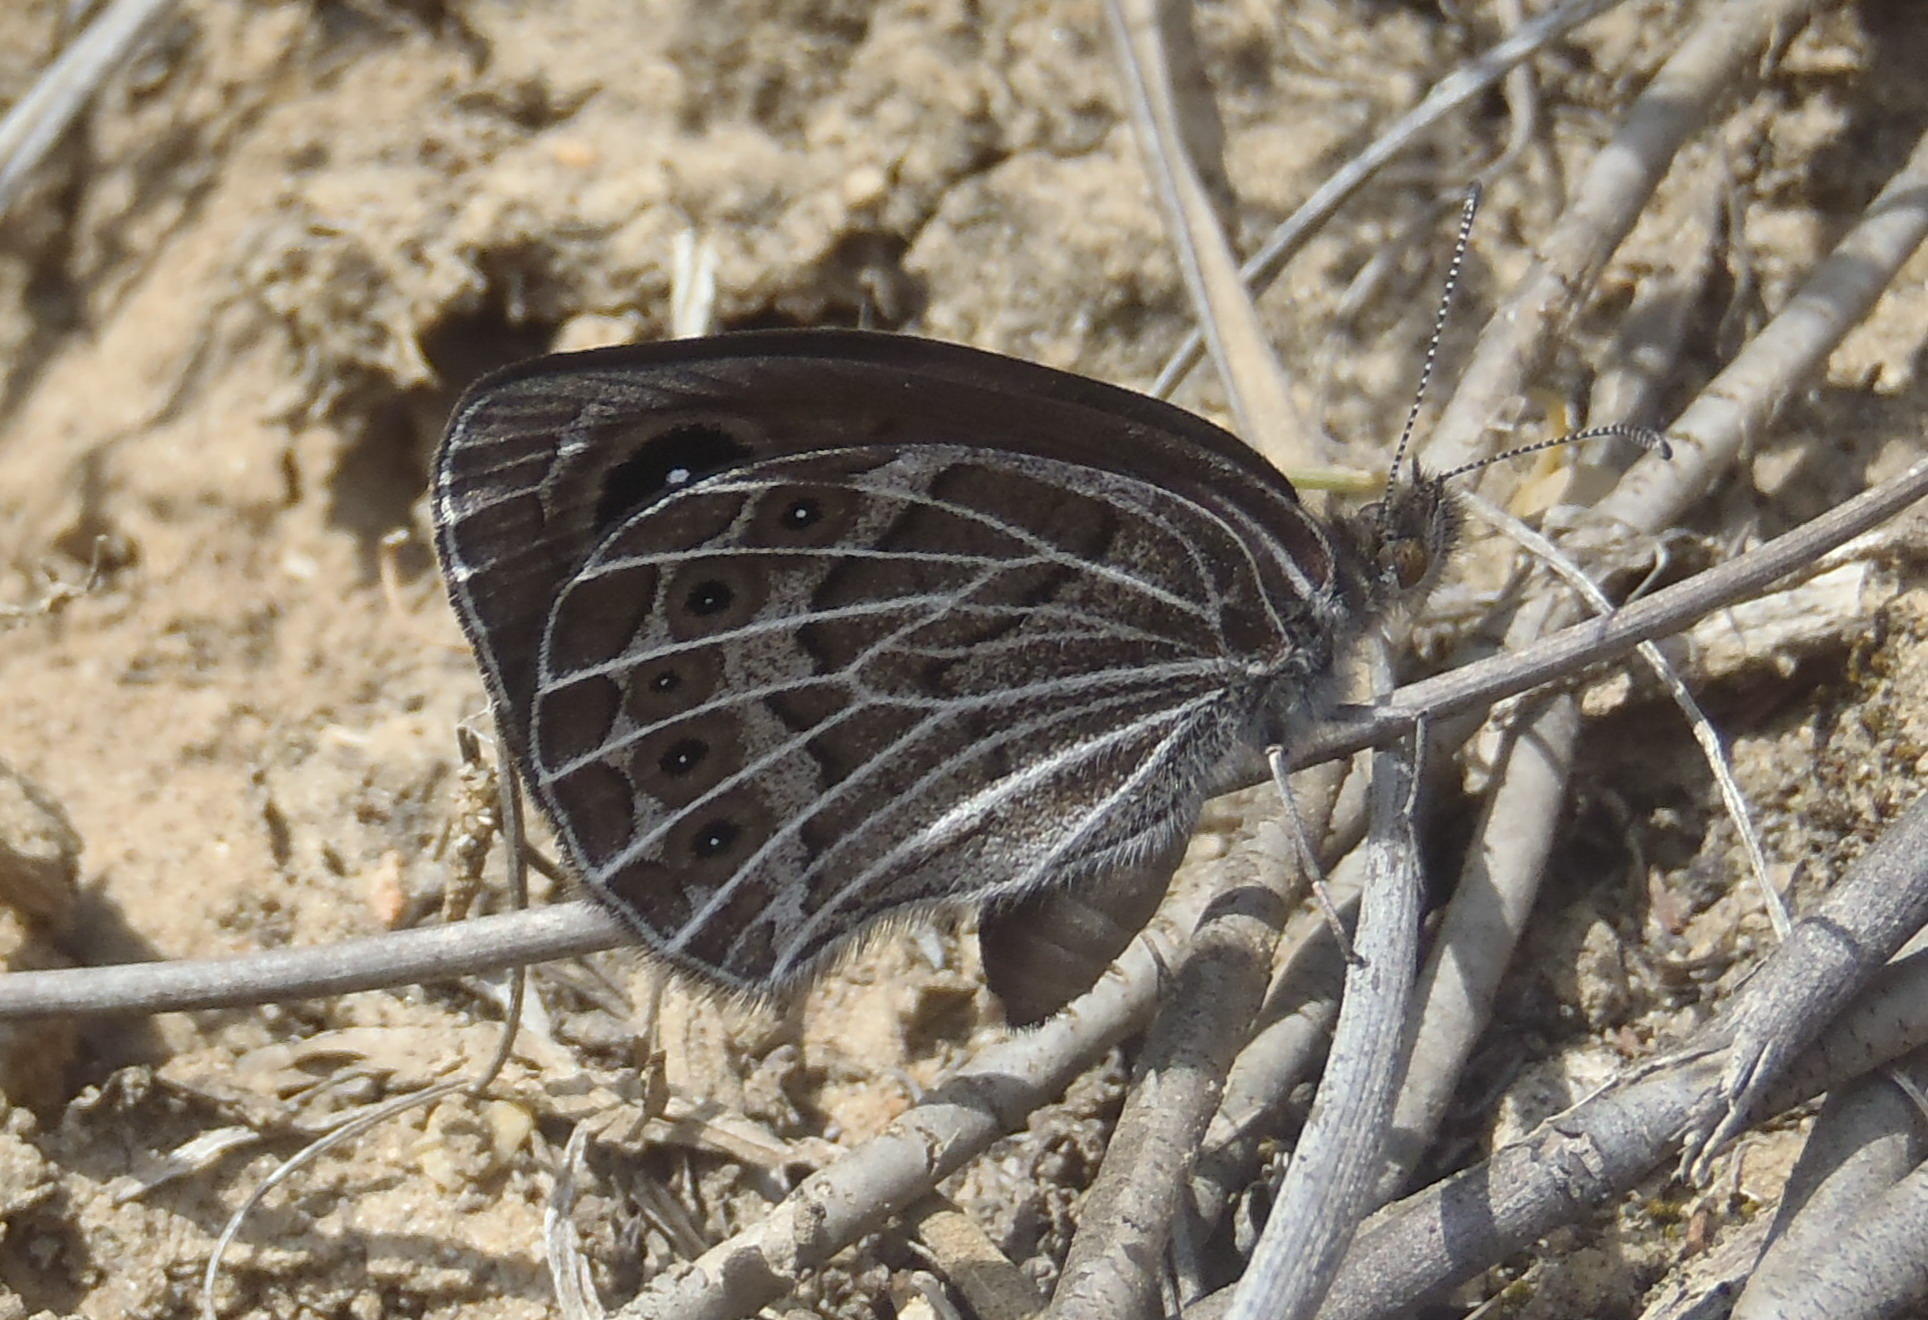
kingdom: Animalia
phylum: Arthropoda
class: Insecta
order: Lepidoptera
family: Nymphalidae
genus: Pseudonympha
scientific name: Pseudonympha trimenii
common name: Trimen’s brown
